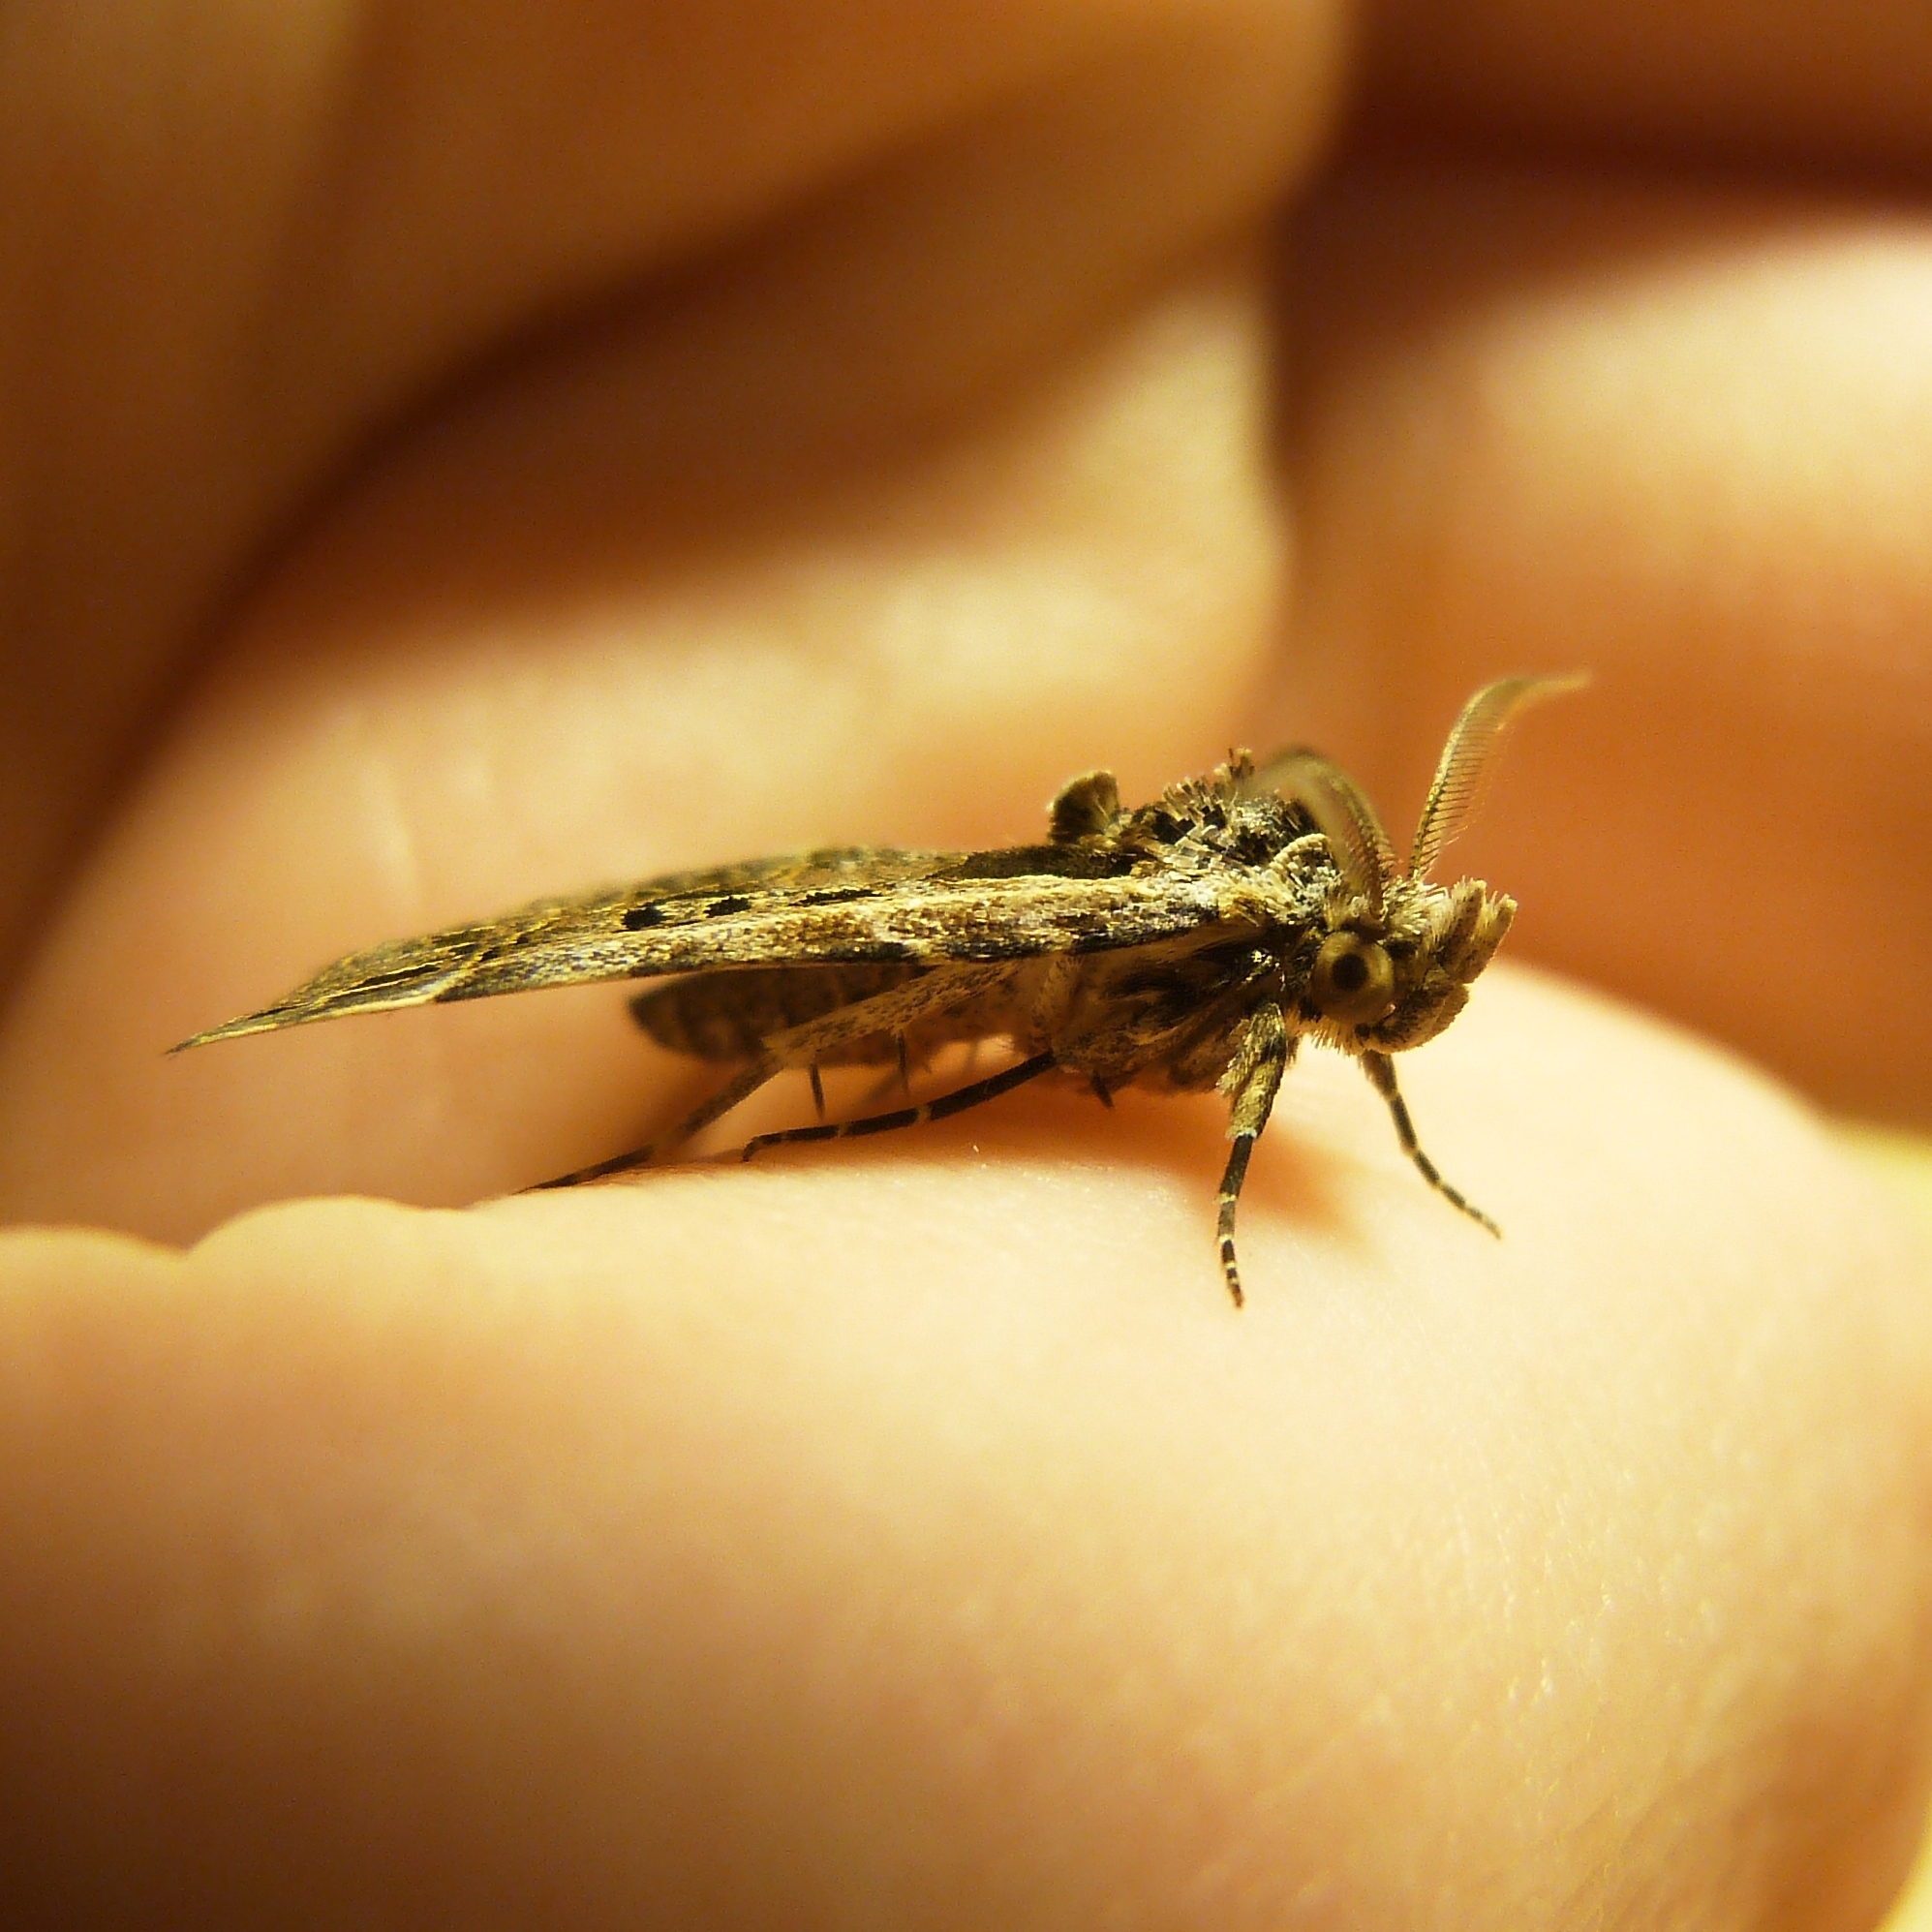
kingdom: Animalia
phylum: Arthropoda
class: Insecta
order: Lepidoptera
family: Erebidae
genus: Arsina
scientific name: Arsina vausema
